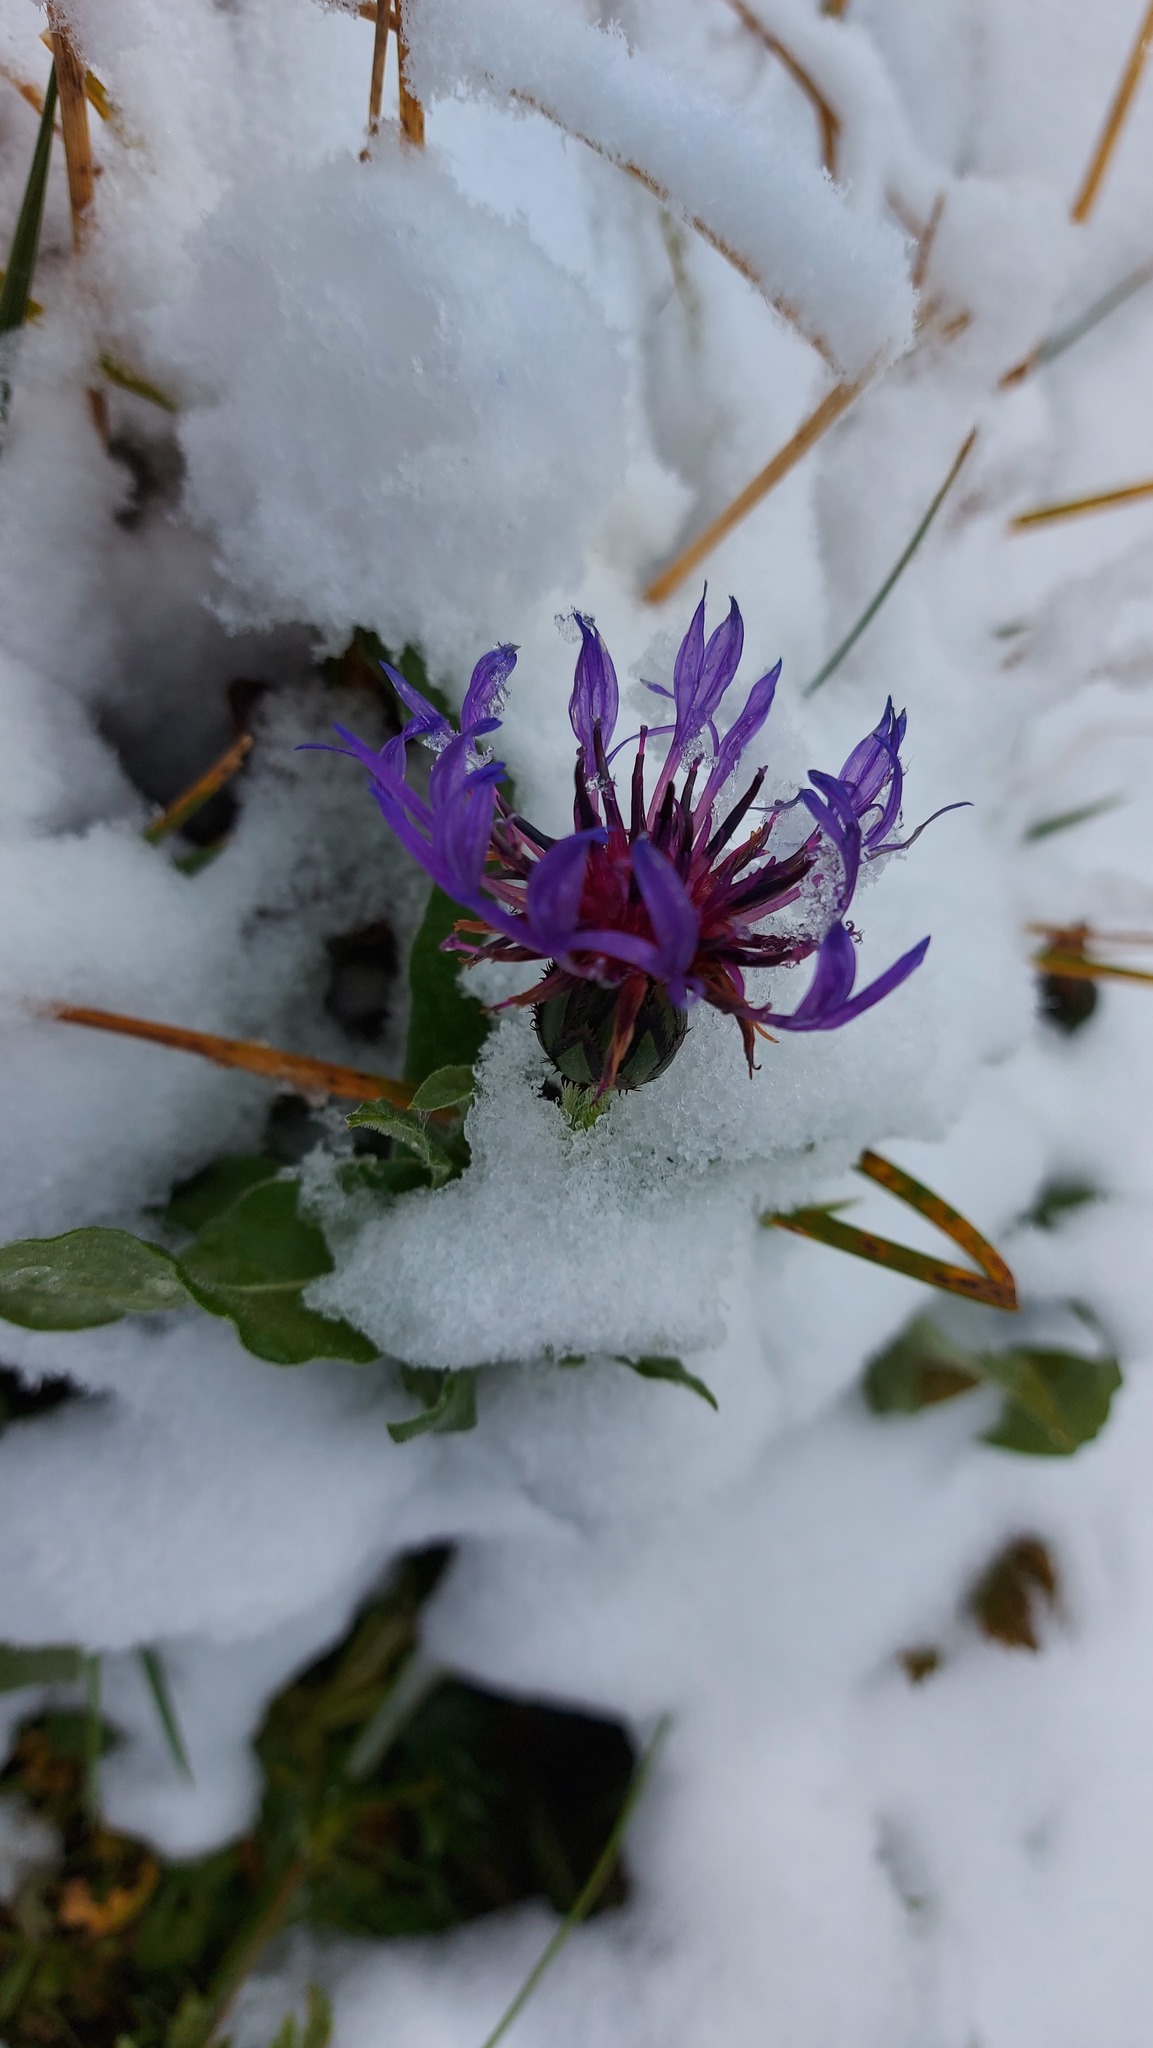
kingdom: Plantae
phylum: Tracheophyta
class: Magnoliopsida
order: Asterales
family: Asteraceae
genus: Centaurea
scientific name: Centaurea montana
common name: Perennial cornflower
